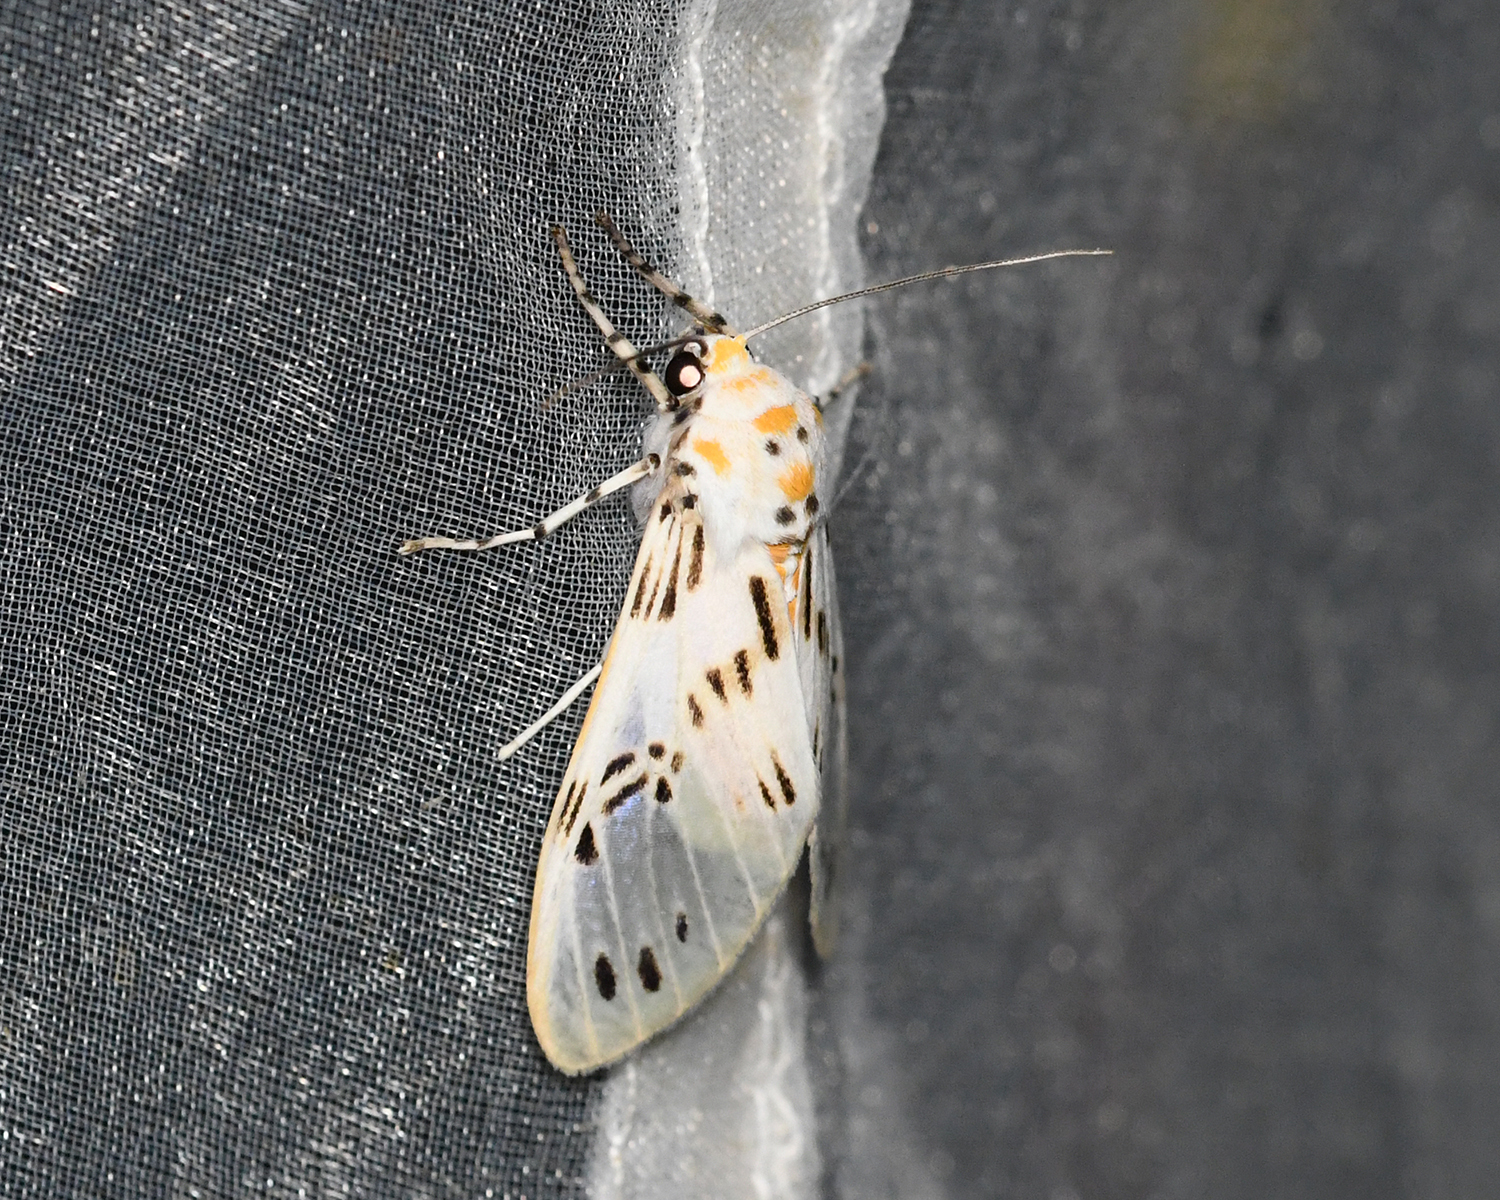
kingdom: Animalia
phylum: Arthropoda
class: Insecta
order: Lepidoptera
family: Erebidae
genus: Idalus
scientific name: Idalus daga
